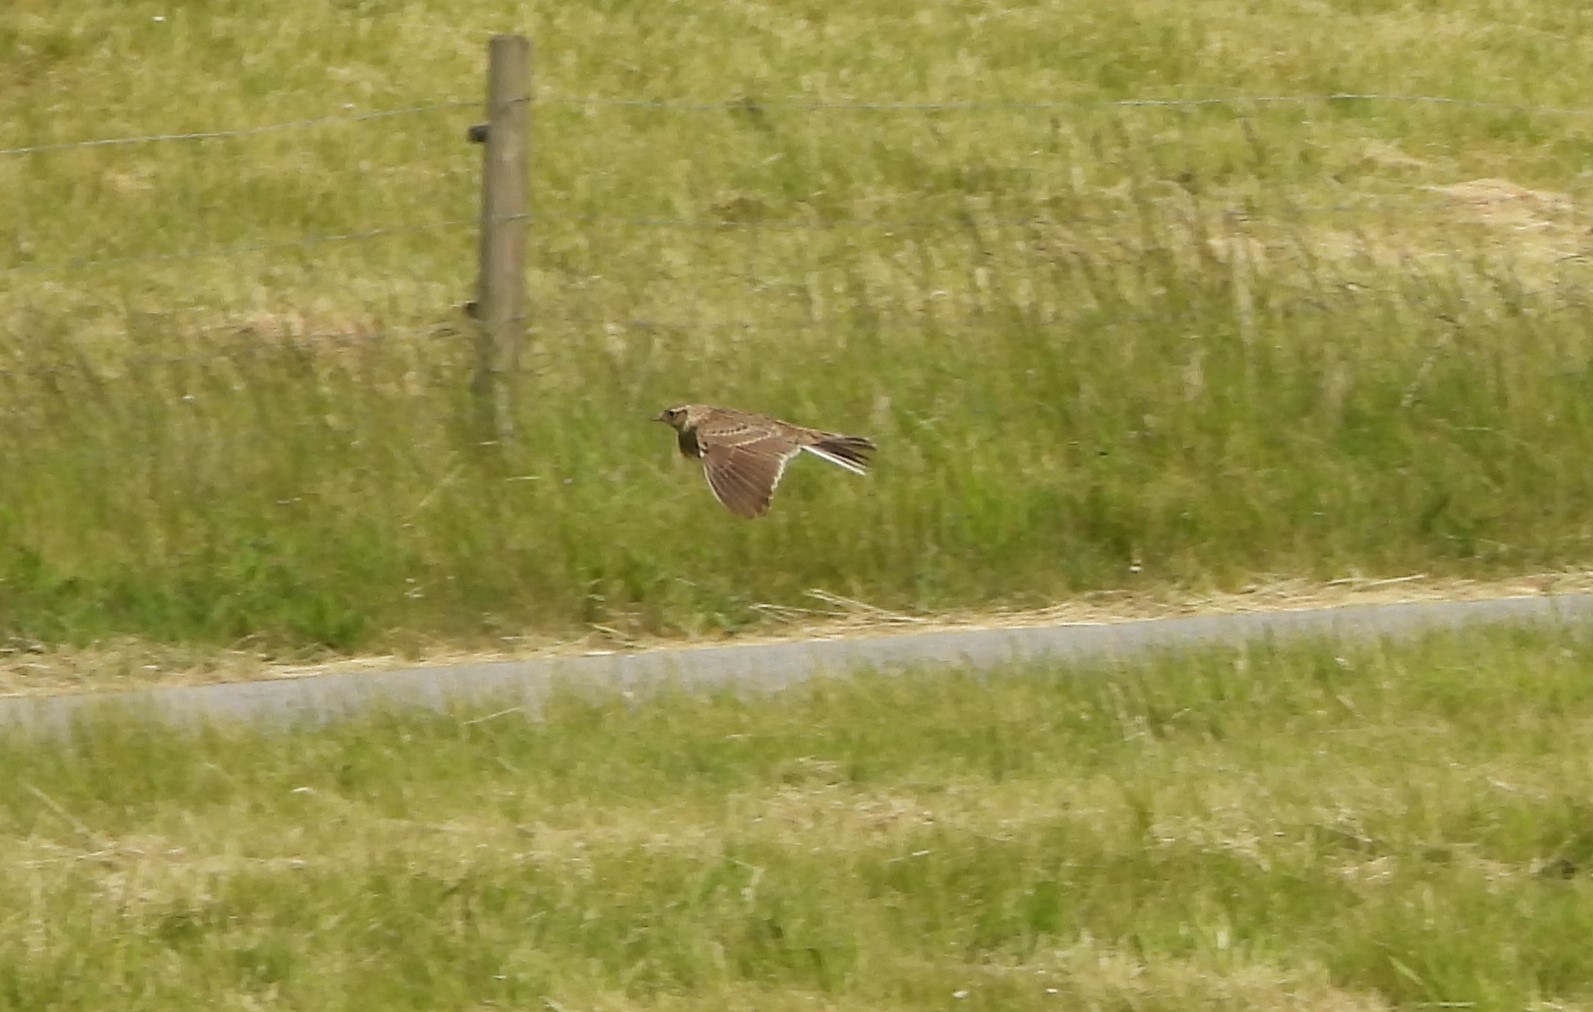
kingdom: Animalia
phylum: Chordata
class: Aves
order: Passeriformes
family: Alaudidae
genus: Alauda
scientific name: Alauda arvensis
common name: Eurasian skylark
